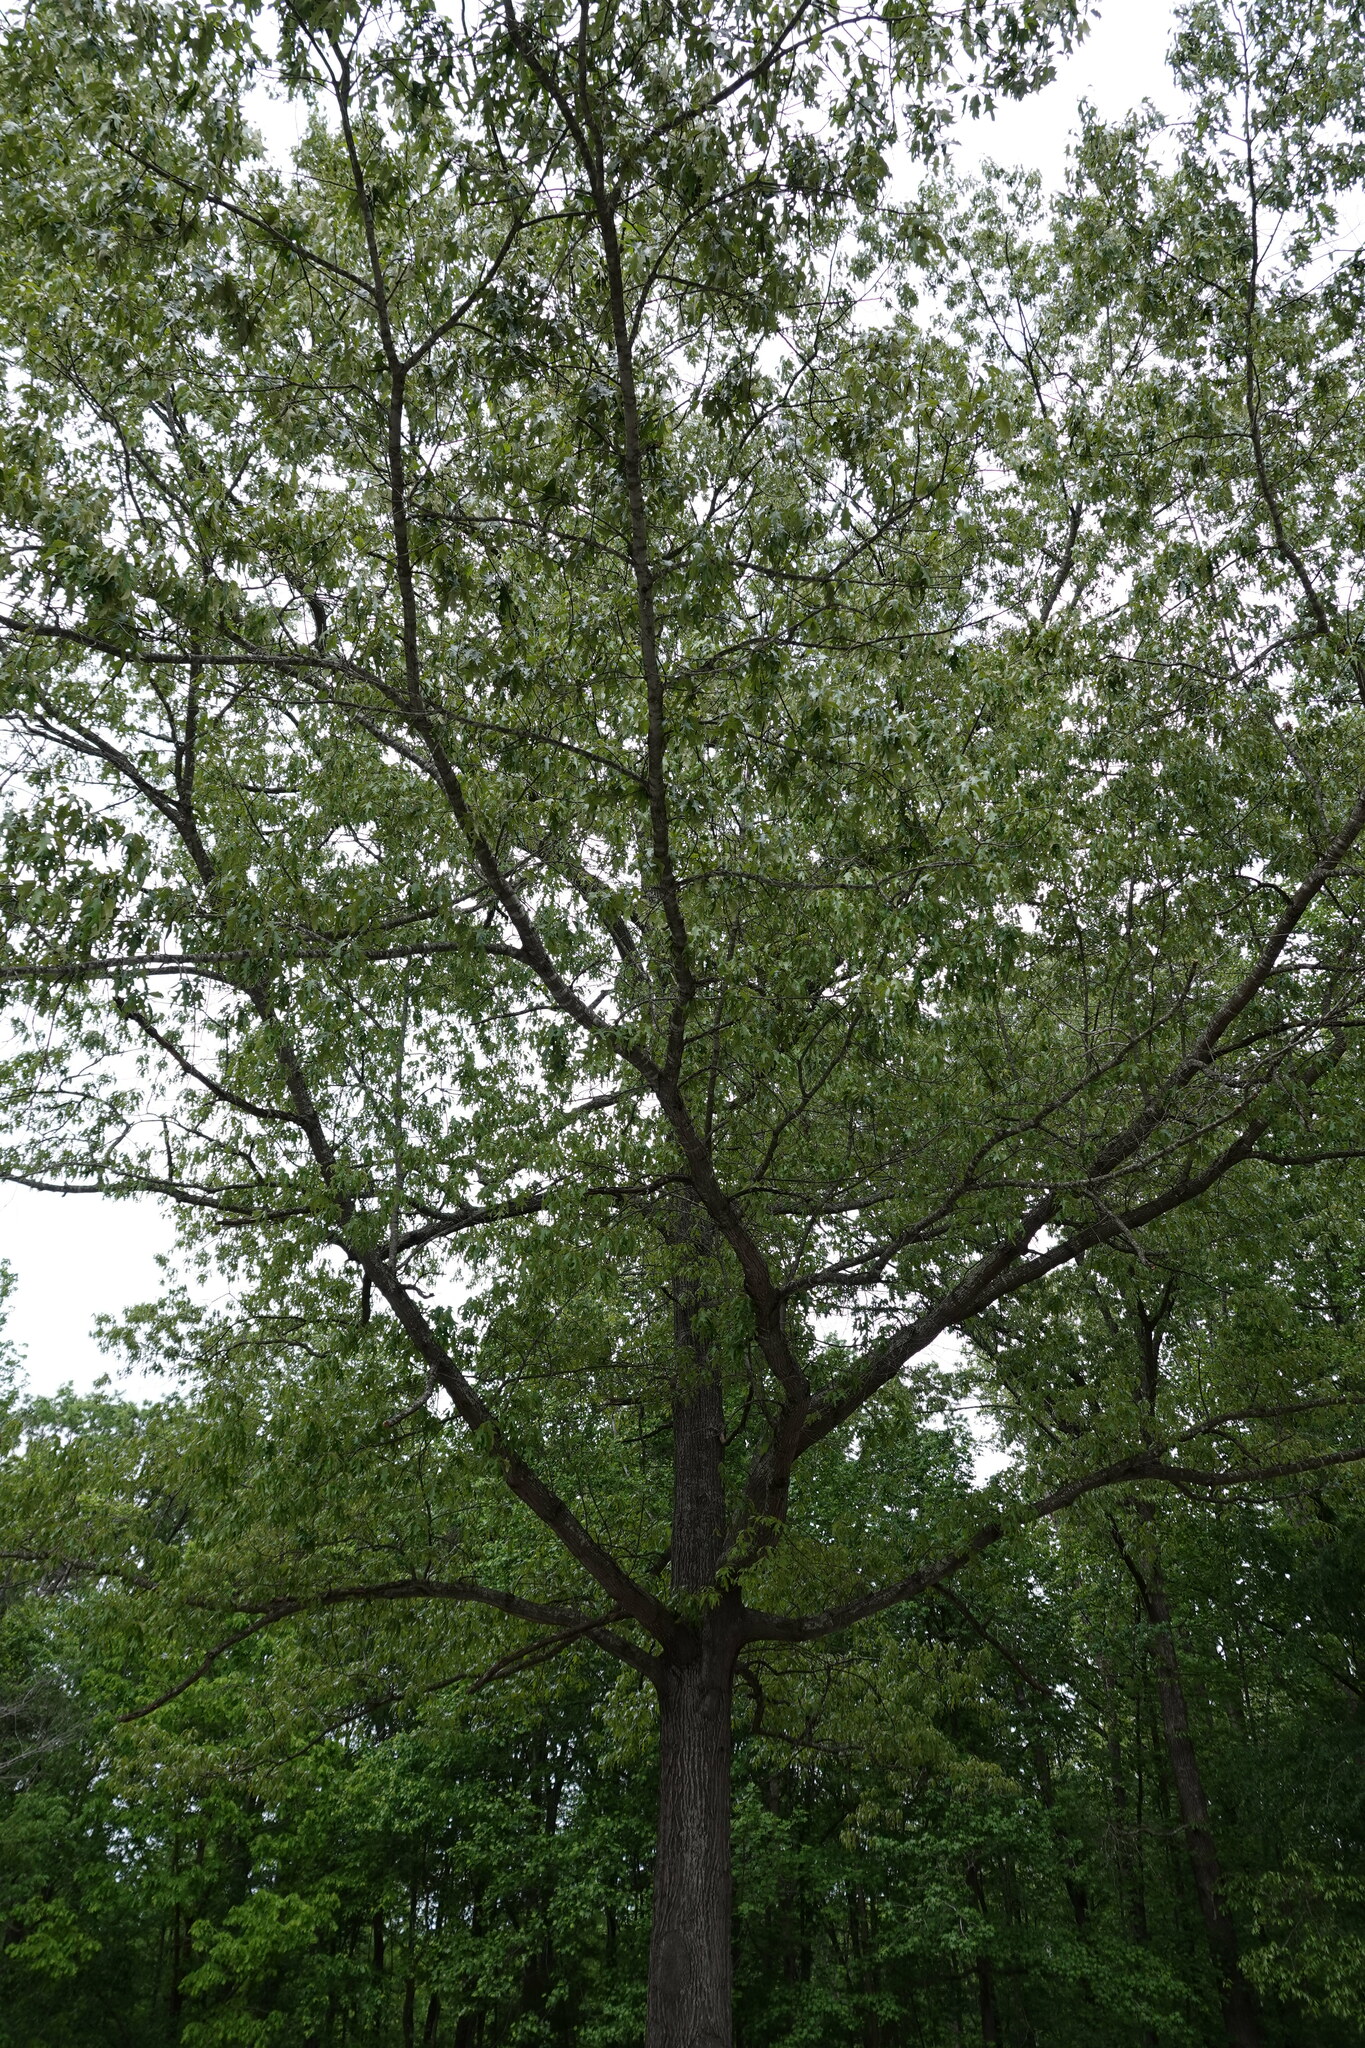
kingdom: Plantae
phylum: Tracheophyta
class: Magnoliopsida
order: Fagales
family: Fagaceae
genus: Quercus
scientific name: Quercus falcata
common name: Southern red oak
